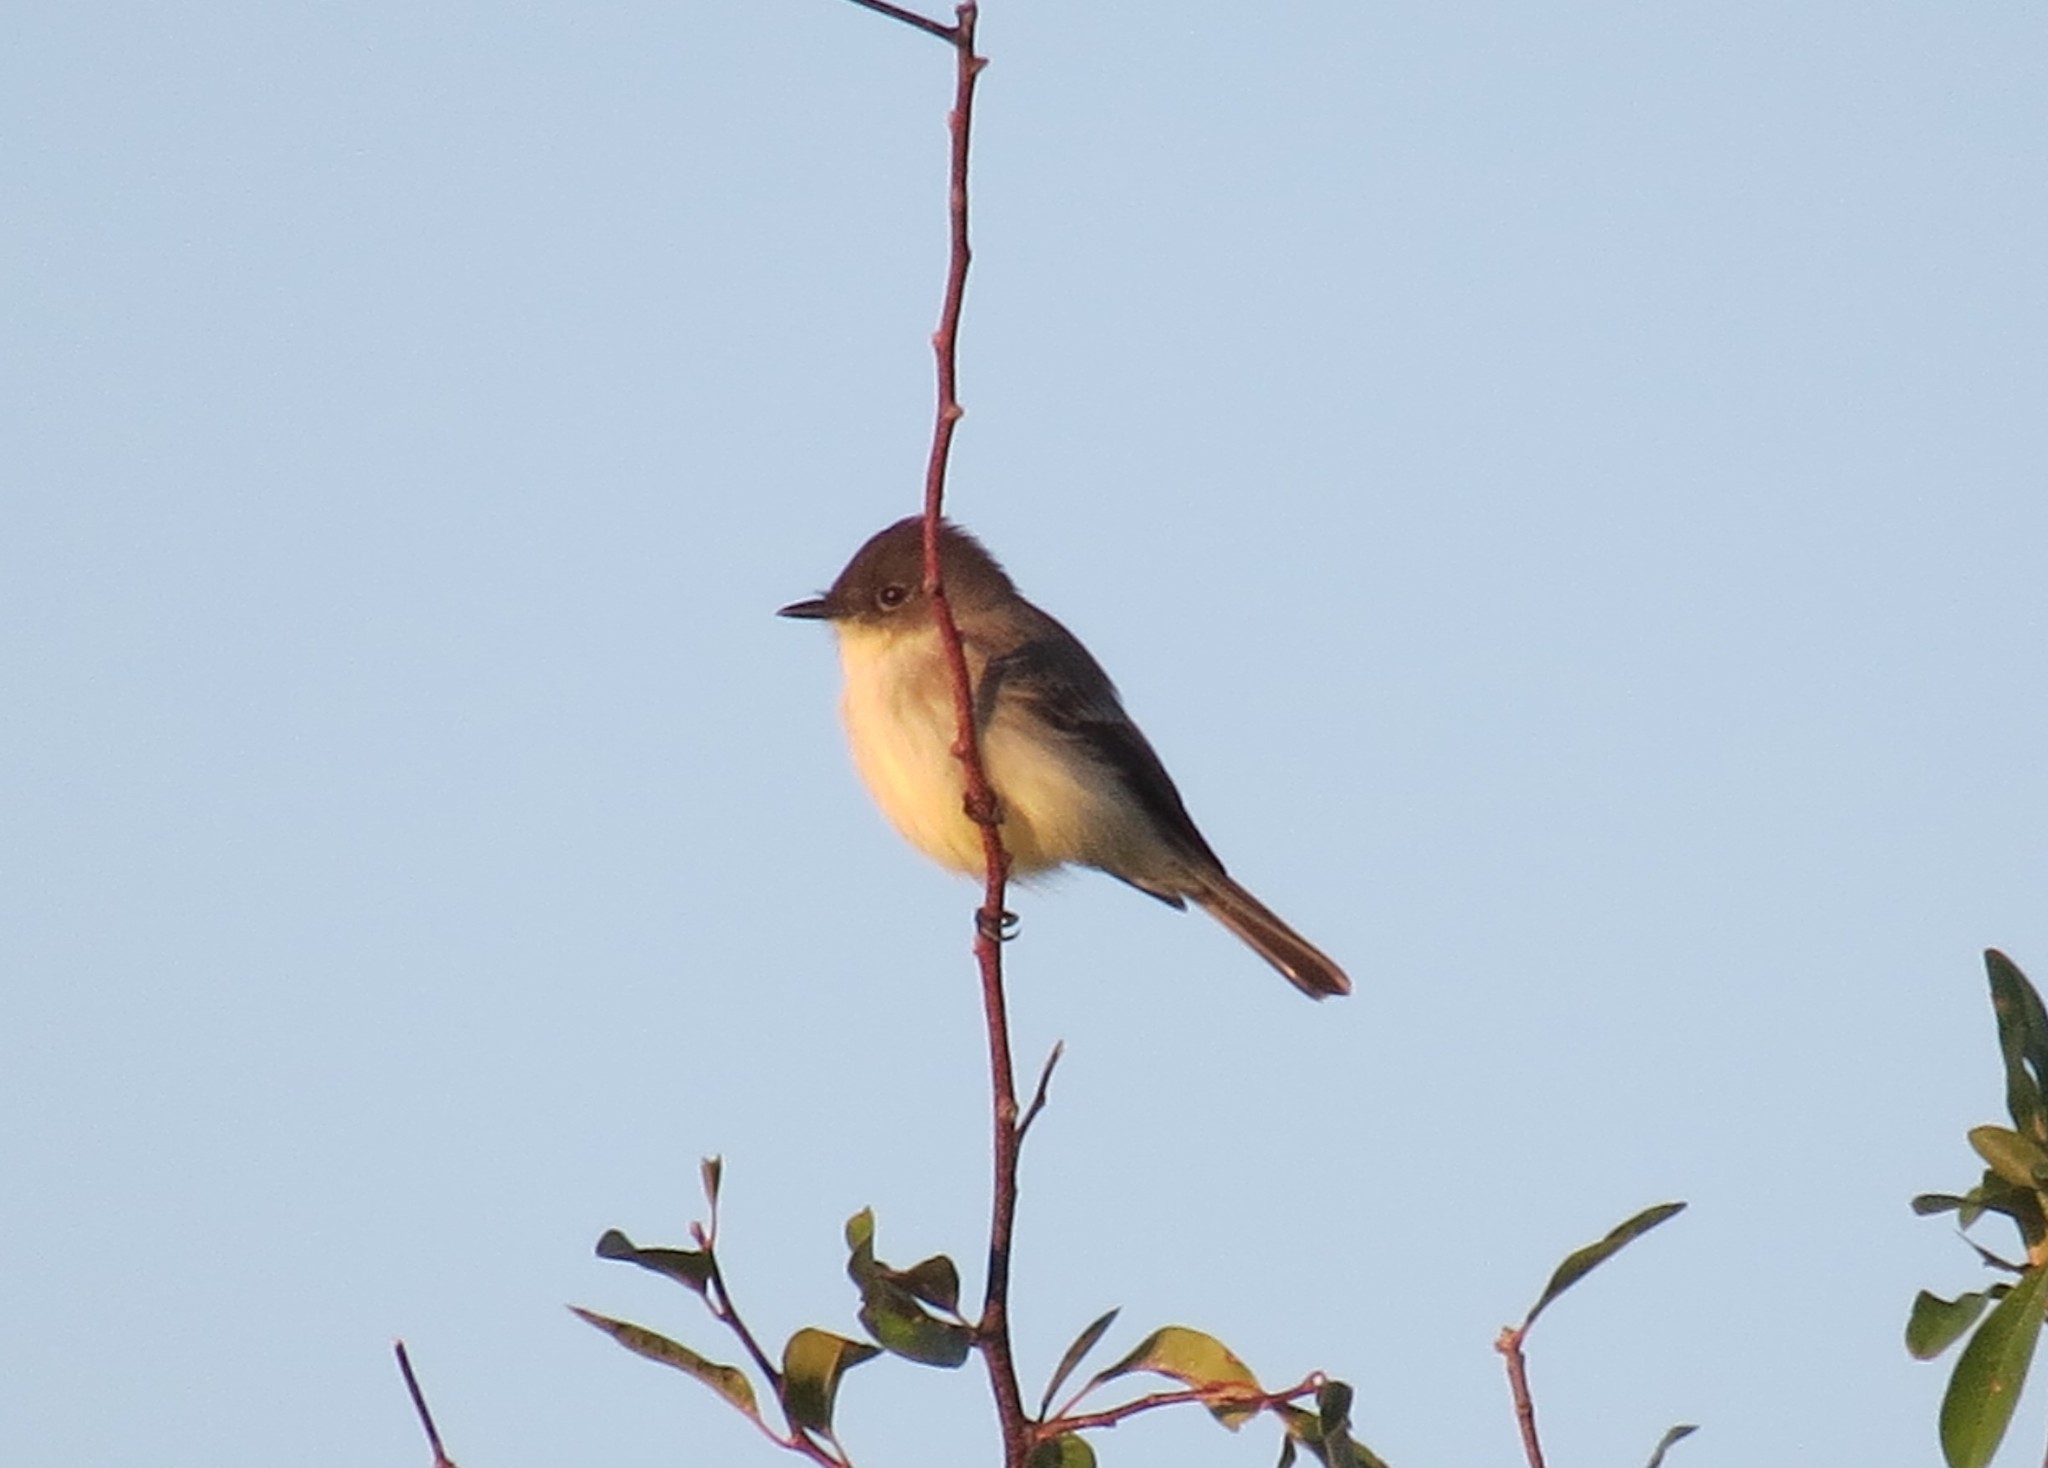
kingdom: Animalia
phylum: Chordata
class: Aves
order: Passeriformes
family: Tyrannidae
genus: Sayornis
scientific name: Sayornis phoebe
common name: Eastern phoebe
